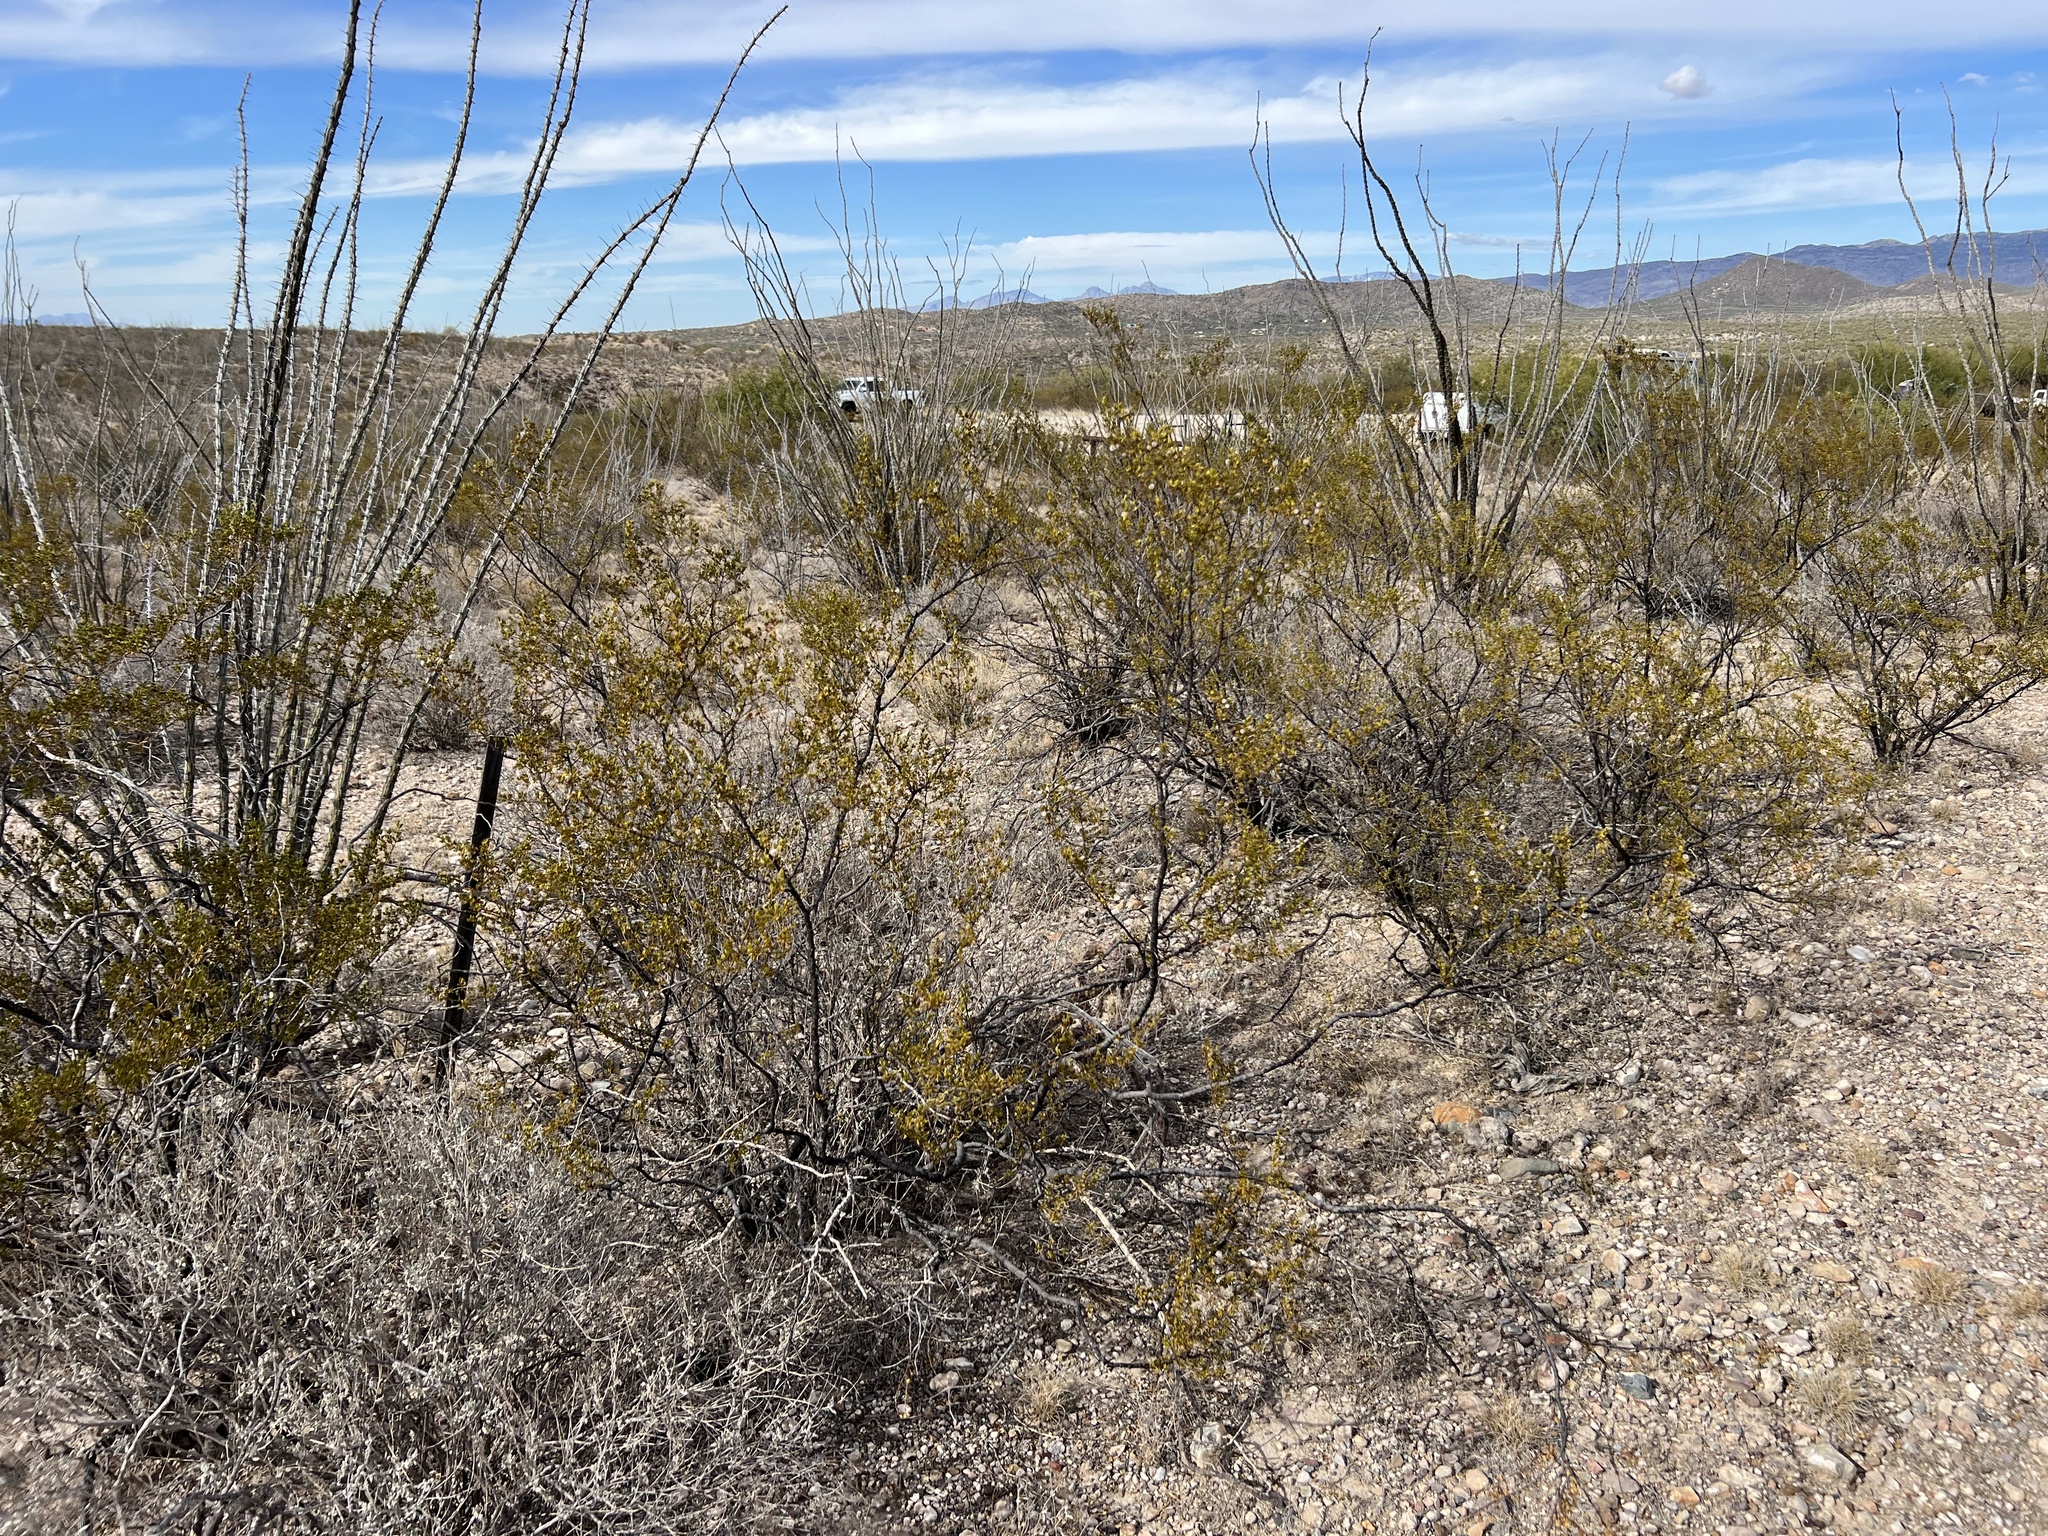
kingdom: Plantae
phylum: Tracheophyta
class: Magnoliopsida
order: Zygophyllales
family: Zygophyllaceae
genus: Larrea
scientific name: Larrea tridentata
